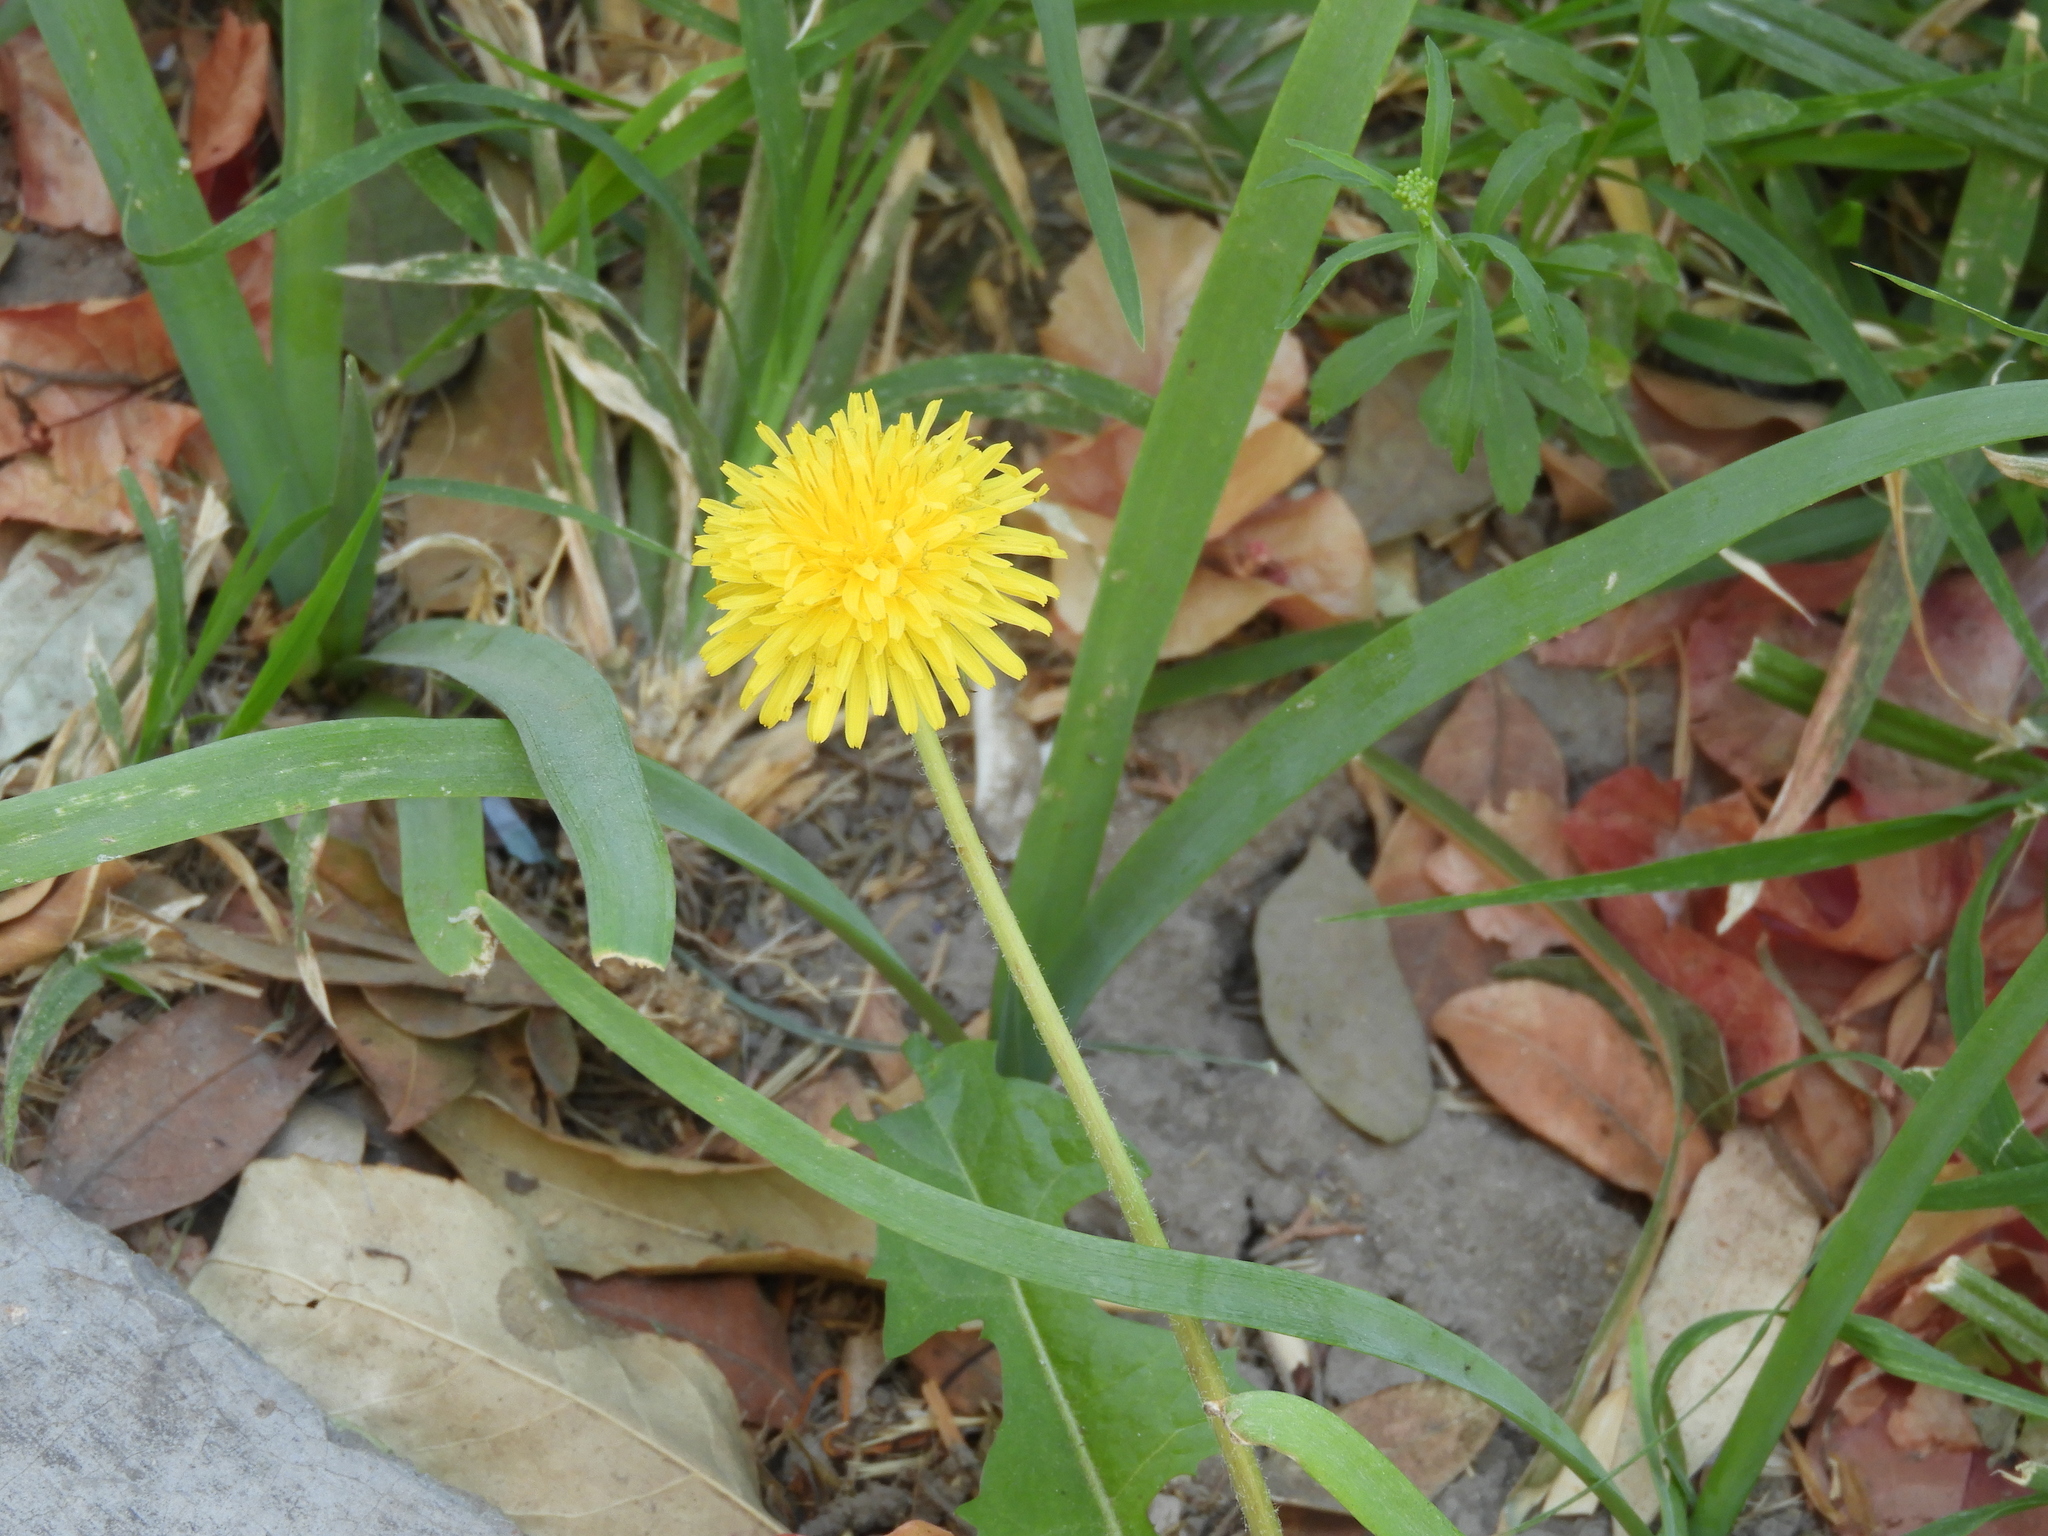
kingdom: Plantae
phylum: Tracheophyta
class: Magnoliopsida
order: Asterales
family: Asteraceae
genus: Taraxacum
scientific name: Taraxacum officinale
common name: Common dandelion
